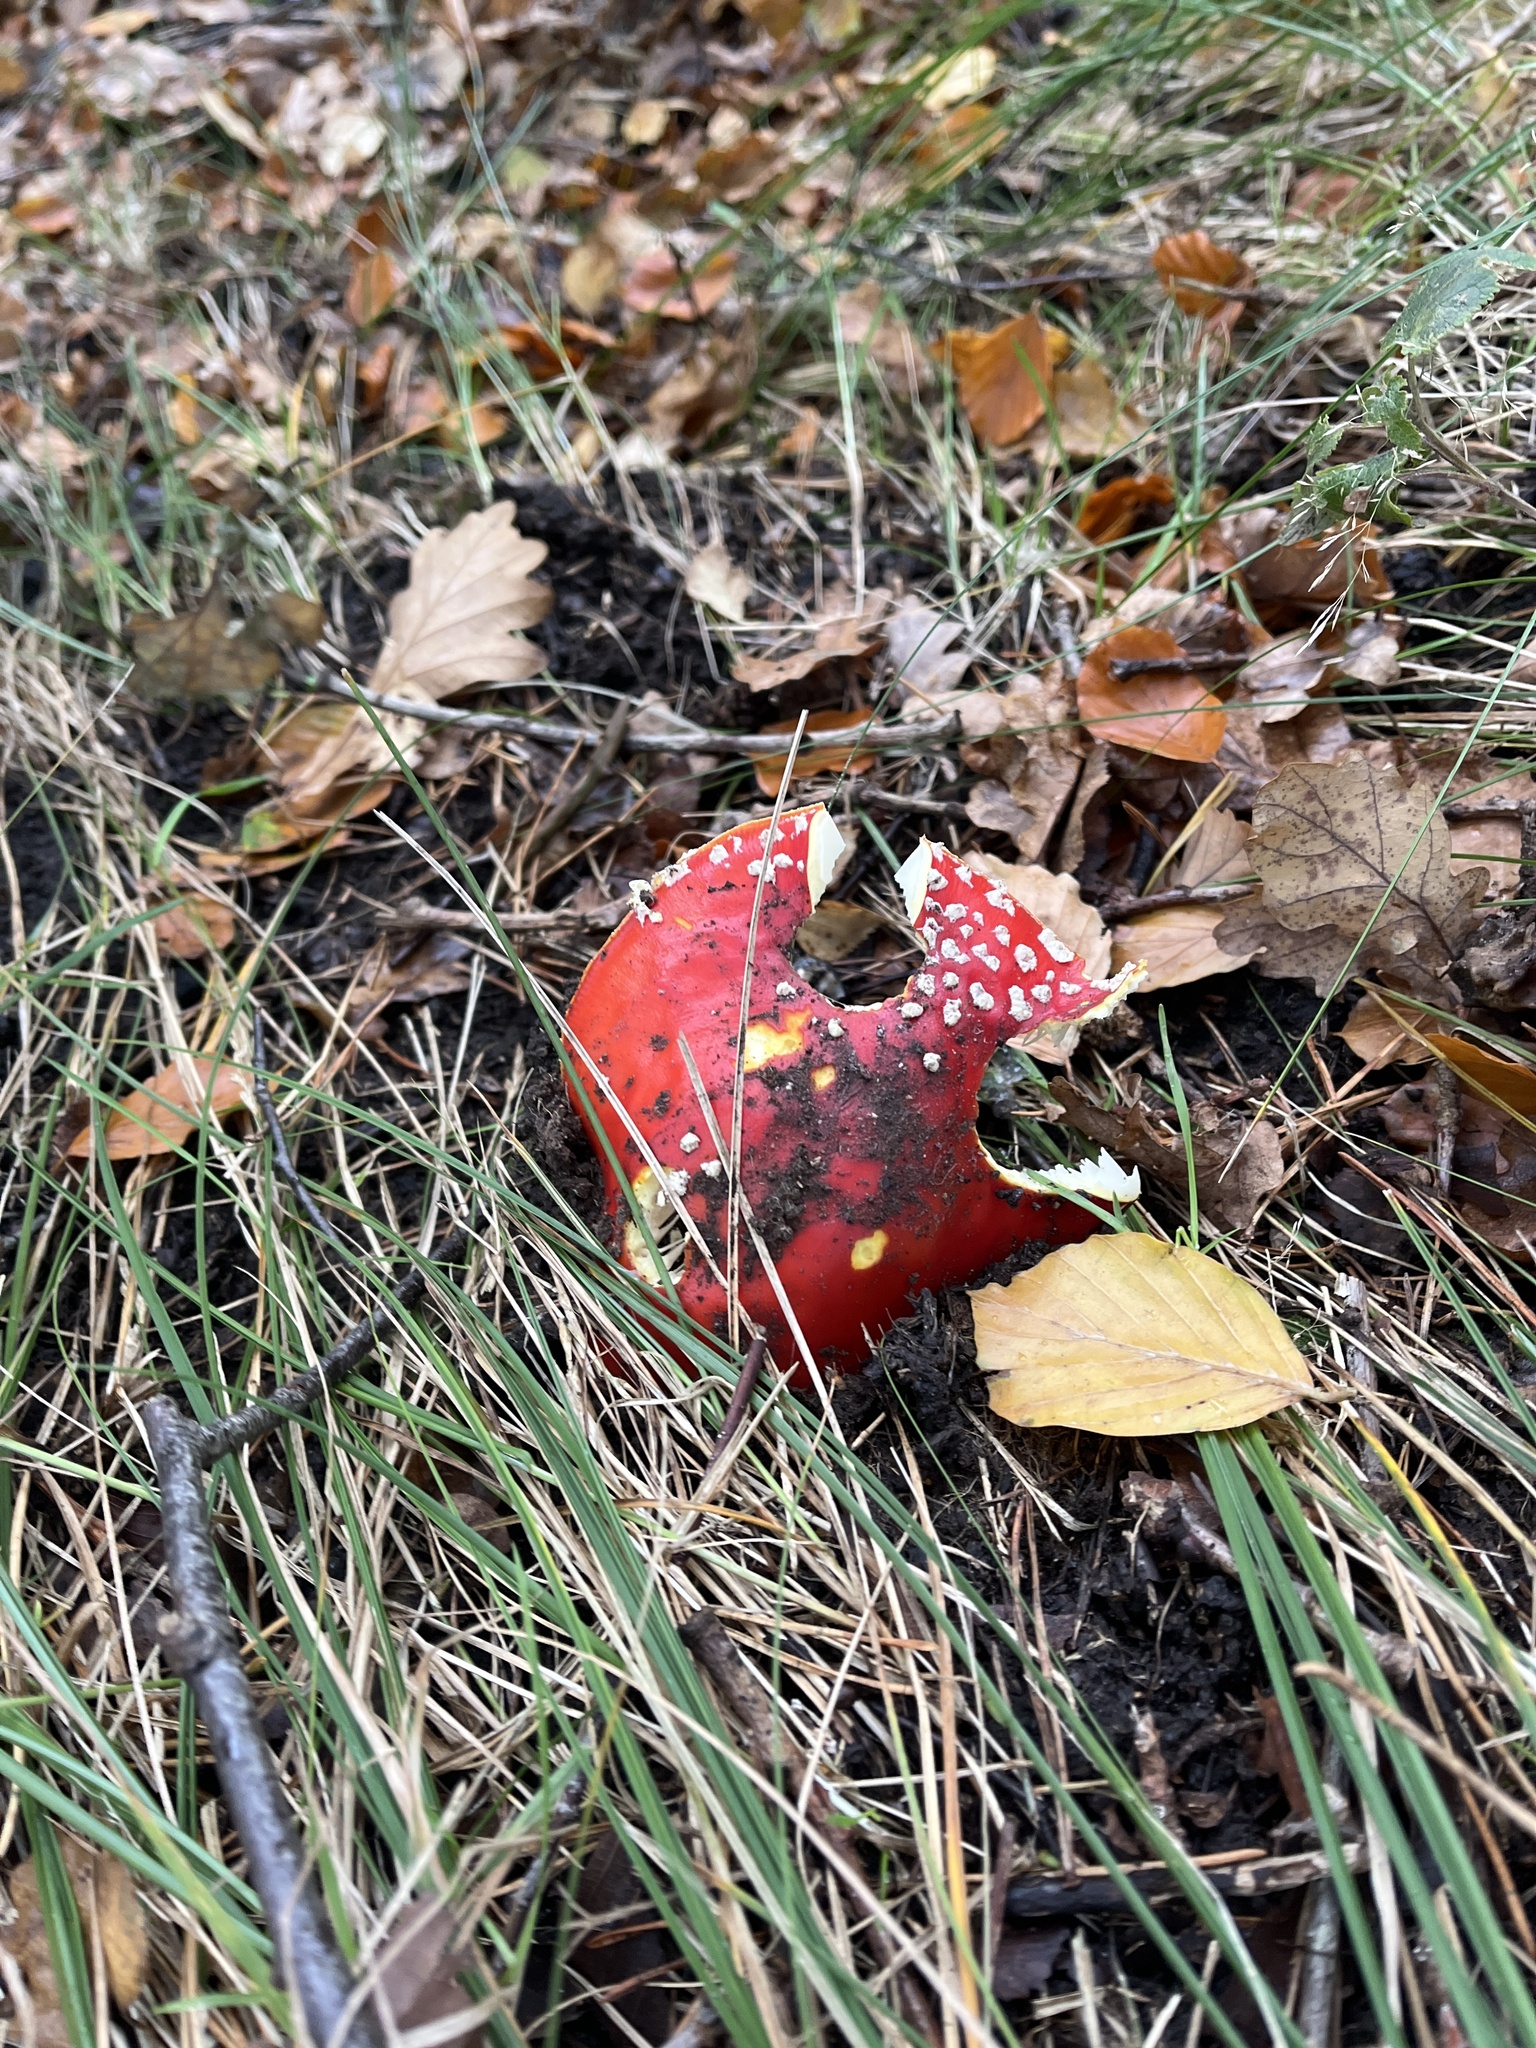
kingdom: Fungi
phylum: Basidiomycota
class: Agaricomycetes
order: Agaricales
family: Amanitaceae
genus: Amanita
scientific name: Amanita muscaria
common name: Fly agaric
